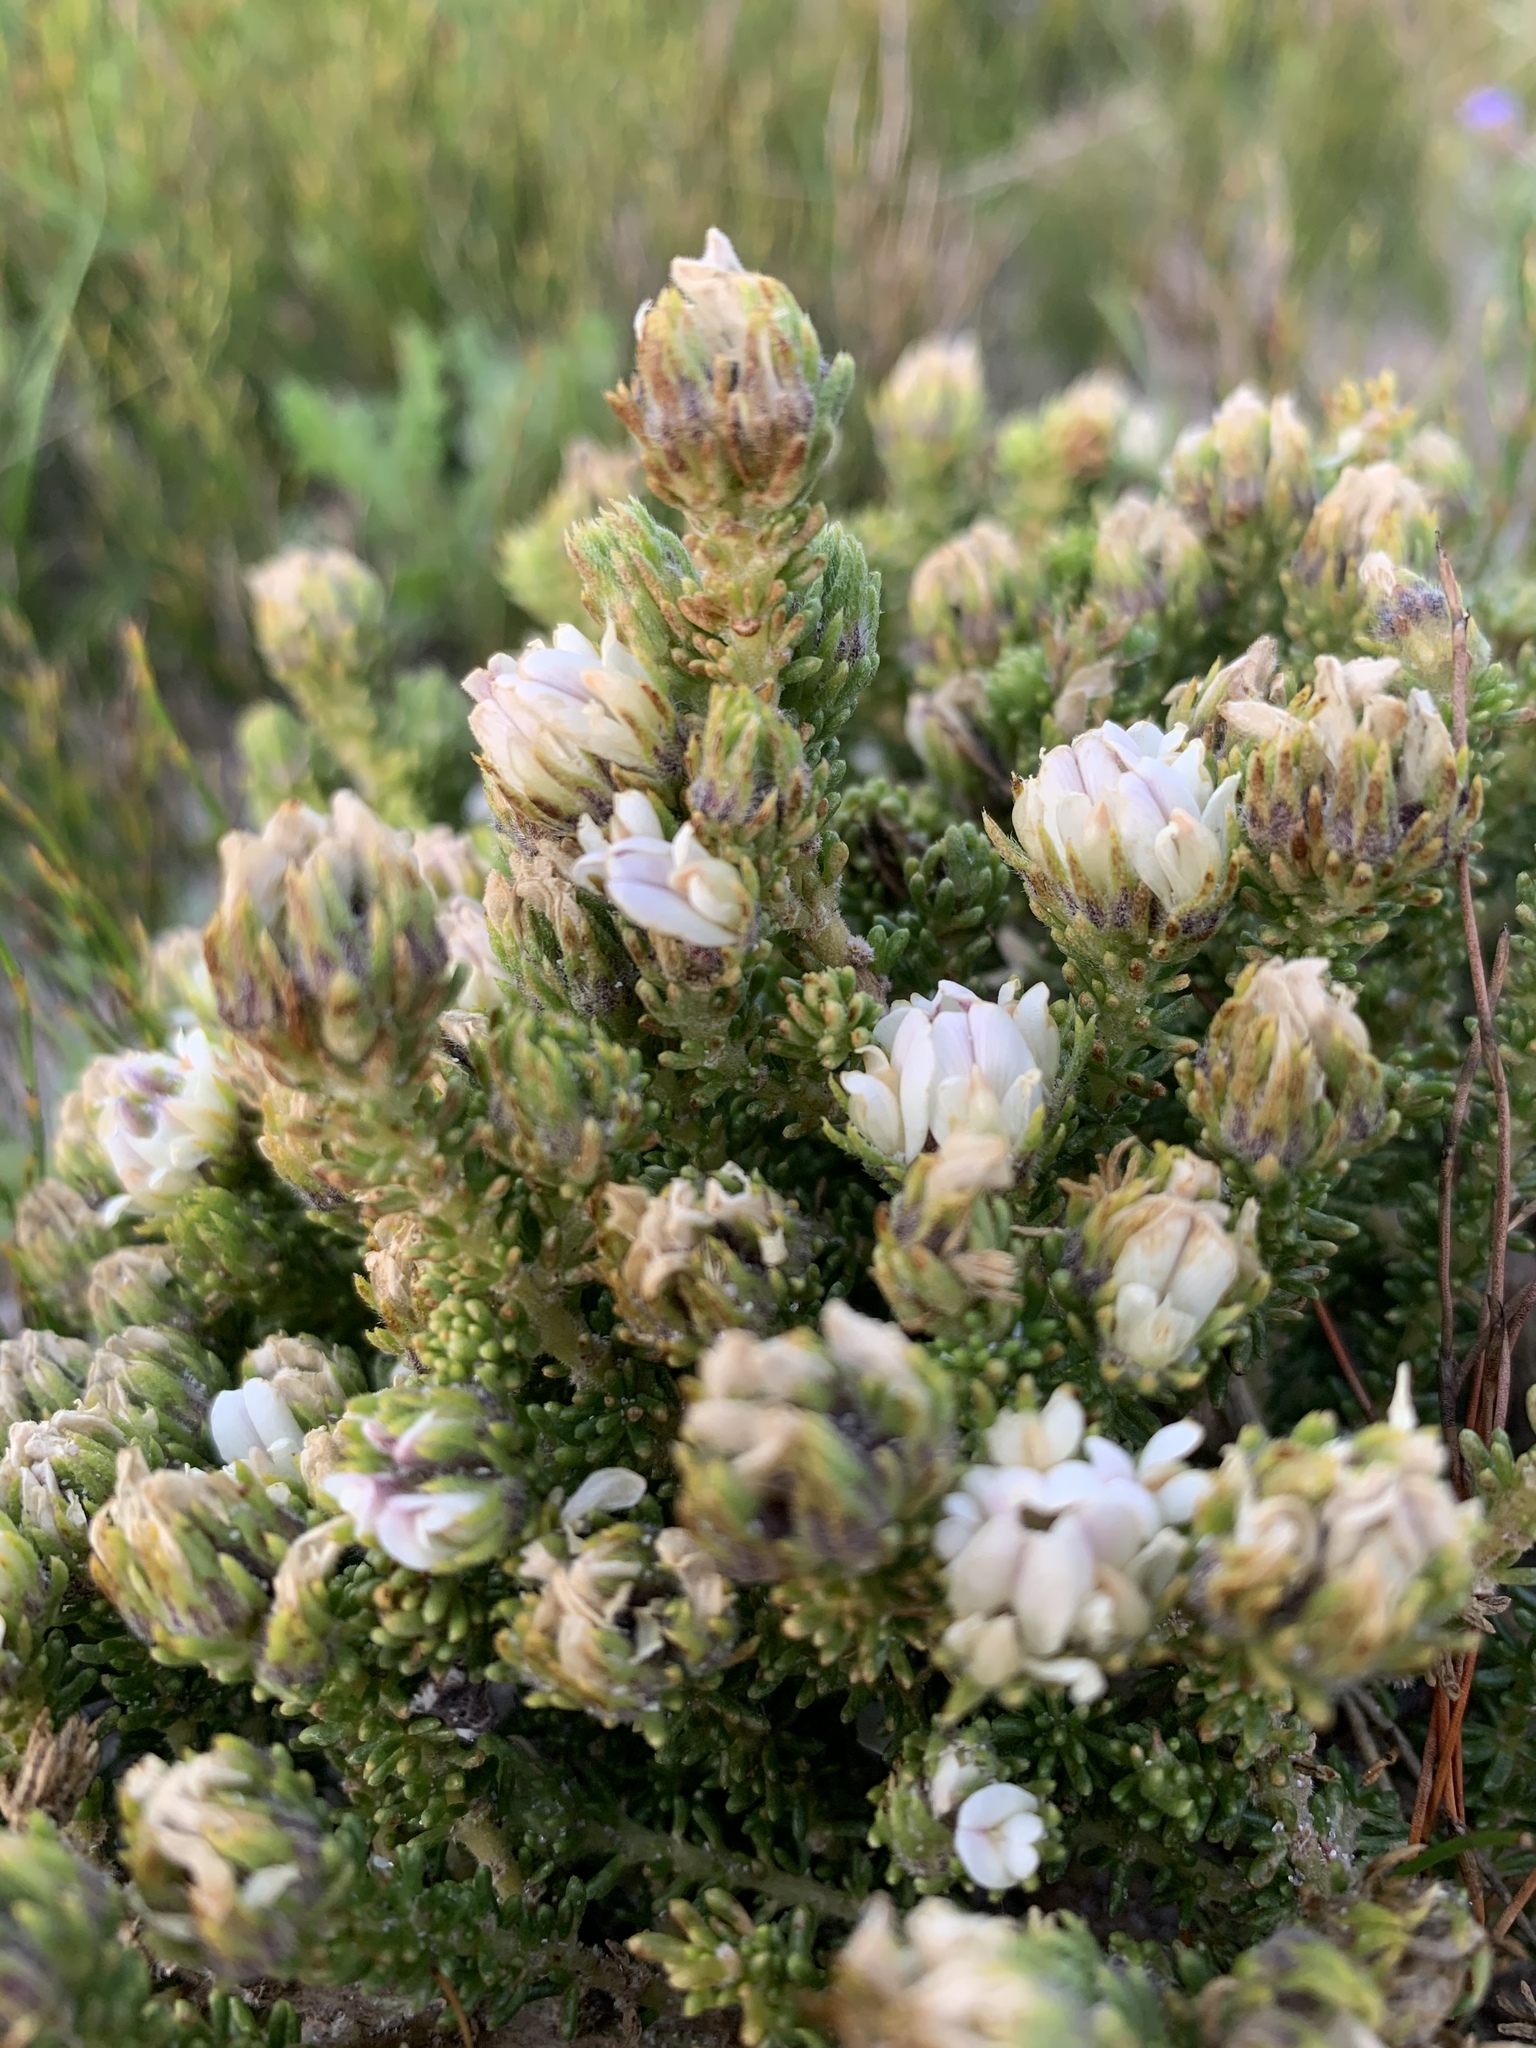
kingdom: Plantae
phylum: Tracheophyta
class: Magnoliopsida
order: Fabales
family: Fabaceae
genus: Aspalathus
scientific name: Aspalathus forbesii
